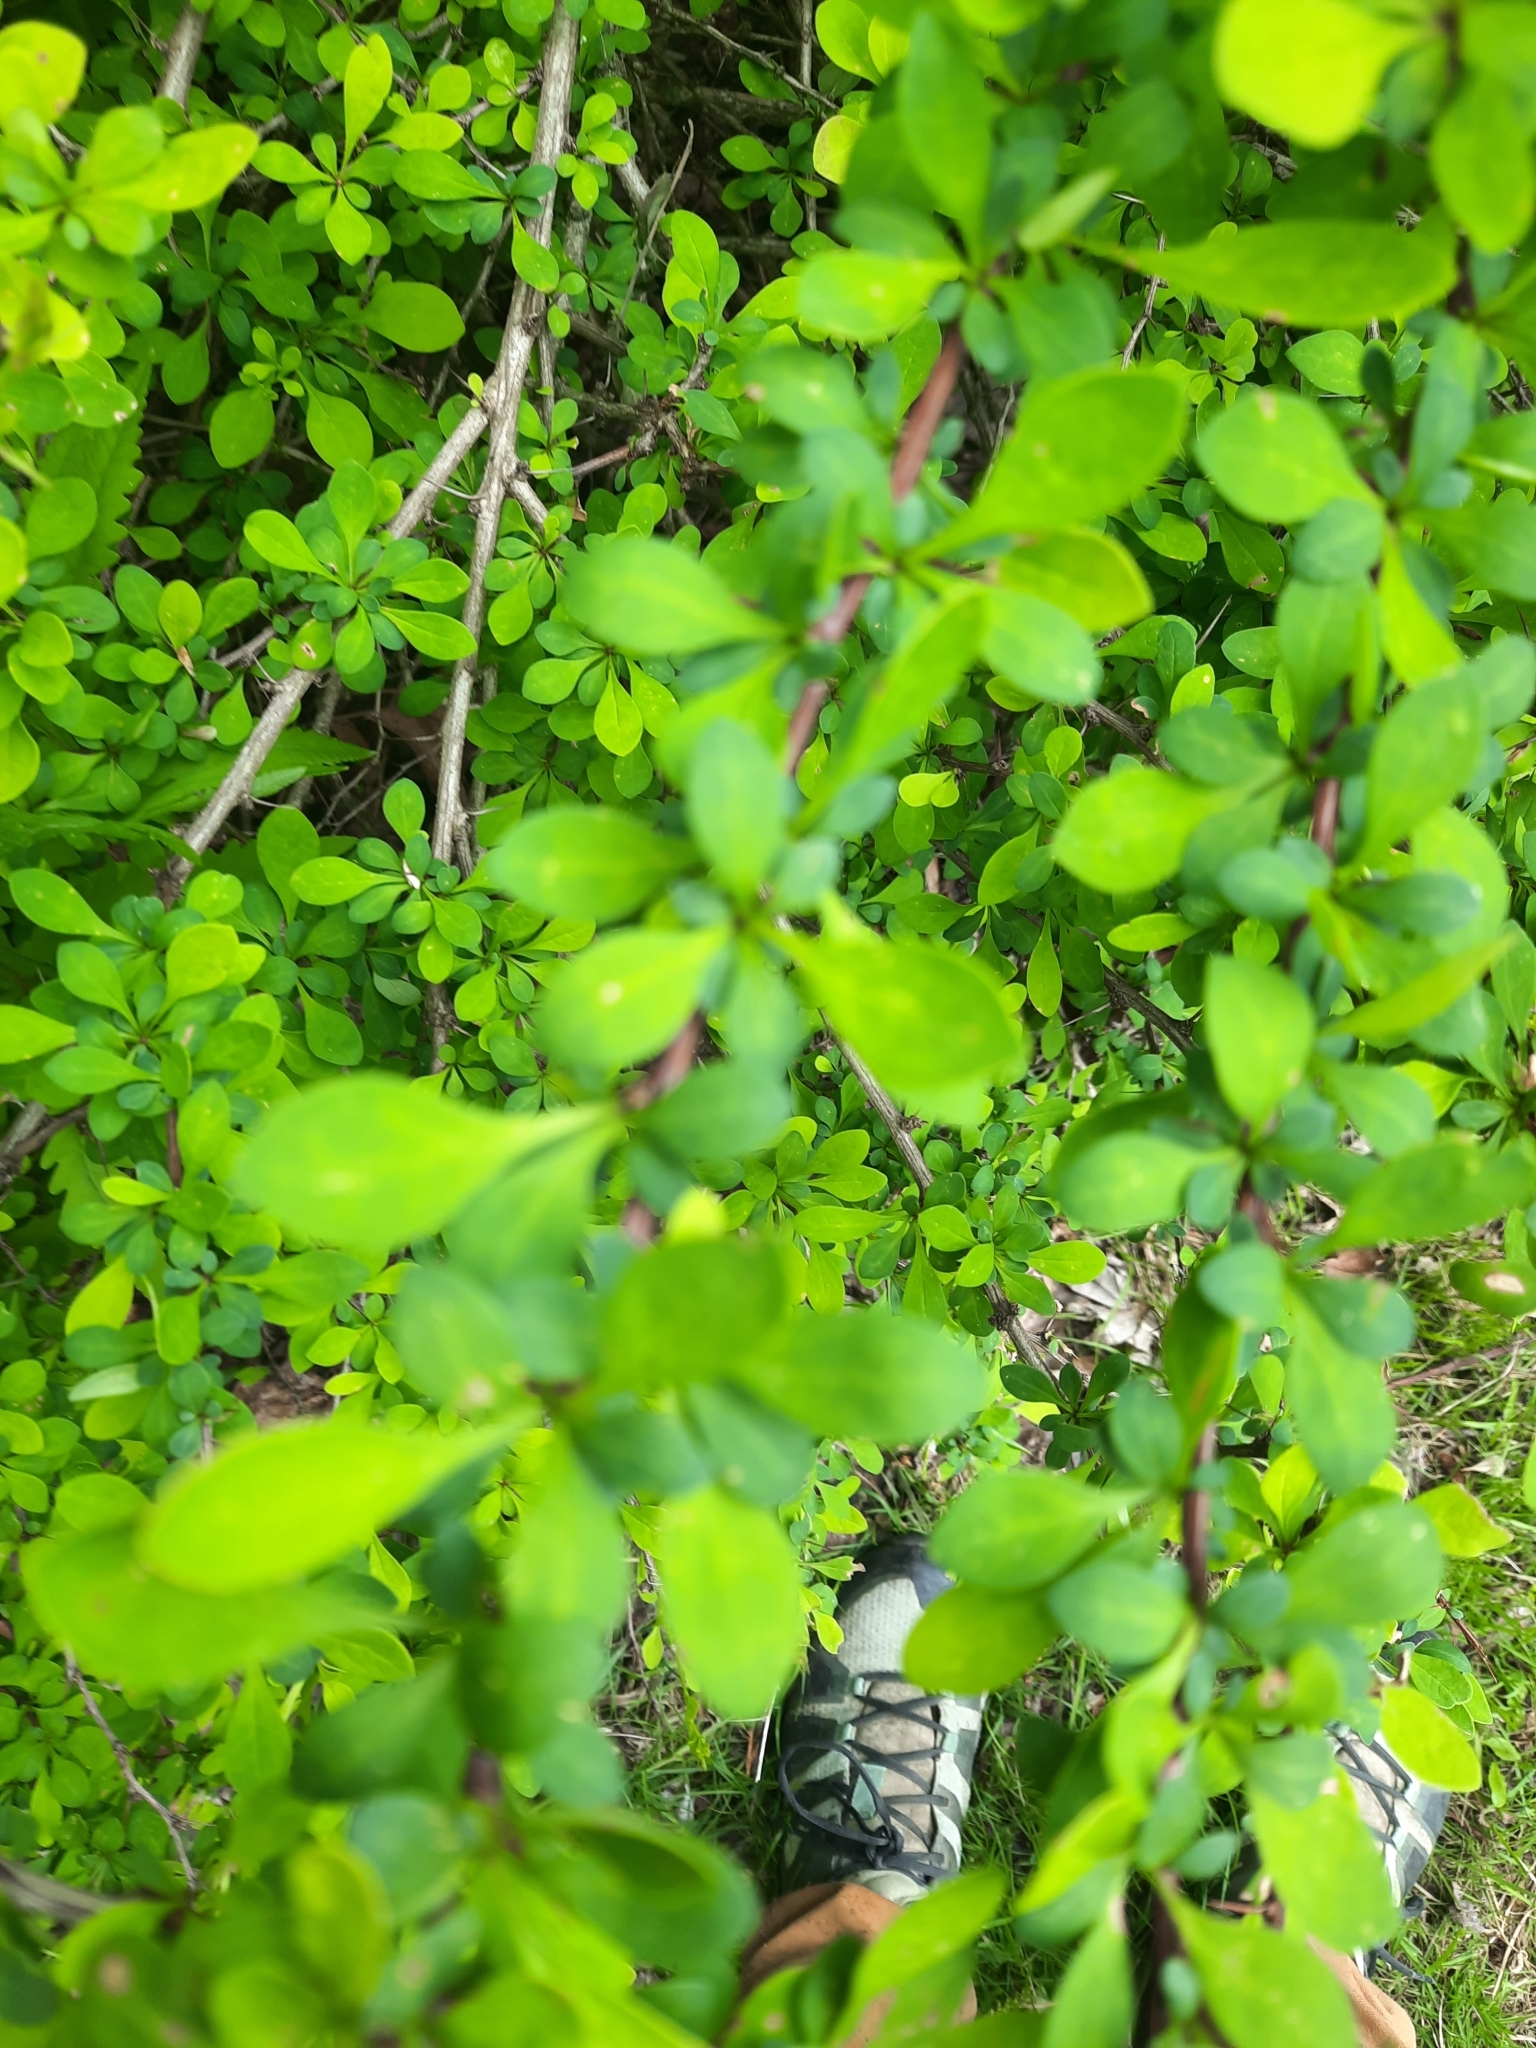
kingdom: Plantae
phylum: Tracheophyta
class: Magnoliopsida
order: Ranunculales
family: Berberidaceae
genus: Berberis
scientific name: Berberis thunbergii
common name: Japanese barberry
